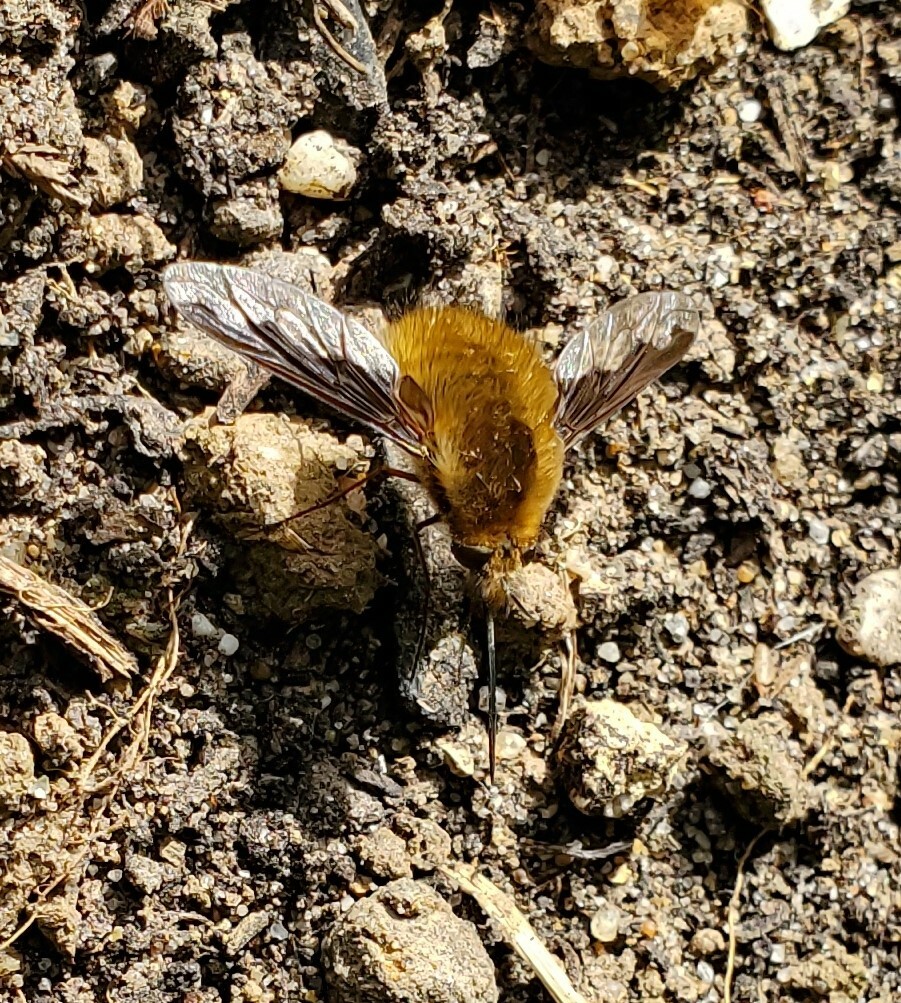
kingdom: Animalia
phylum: Arthropoda
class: Insecta
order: Diptera
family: Bombyliidae
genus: Bombylius
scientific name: Bombylius major
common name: Bee fly
